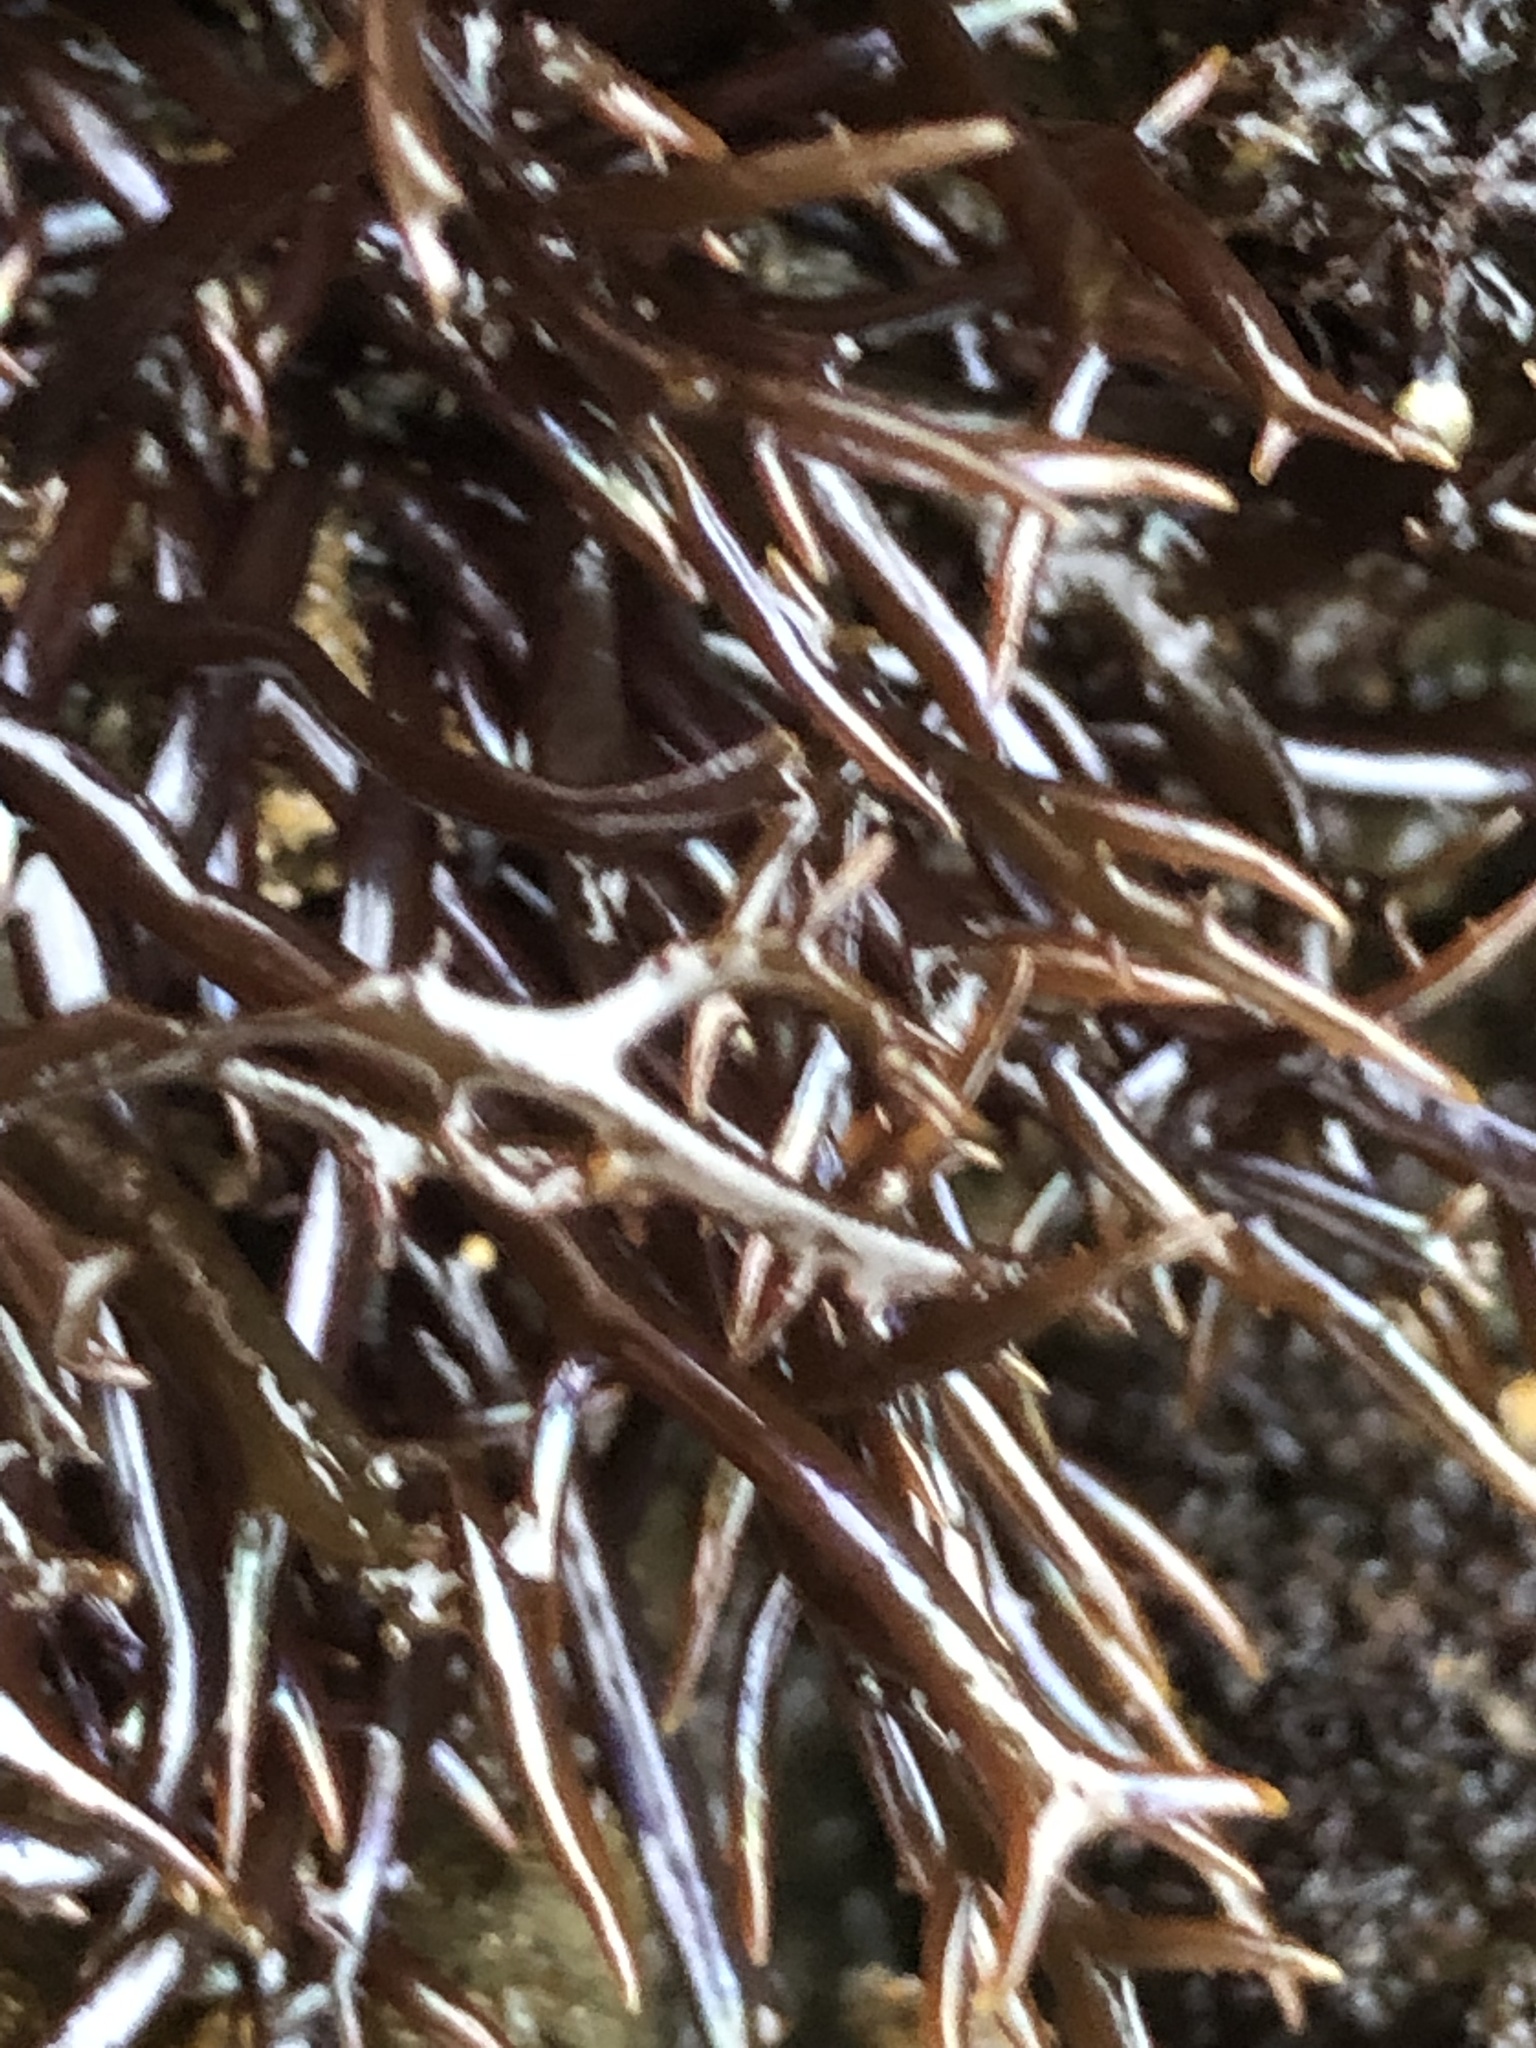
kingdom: Plantae
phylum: Rhodophyta
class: Florideophyceae
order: Gigartinales
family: Gigartinaceae
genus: Chondracanthus
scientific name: Chondracanthus canaliculatus
